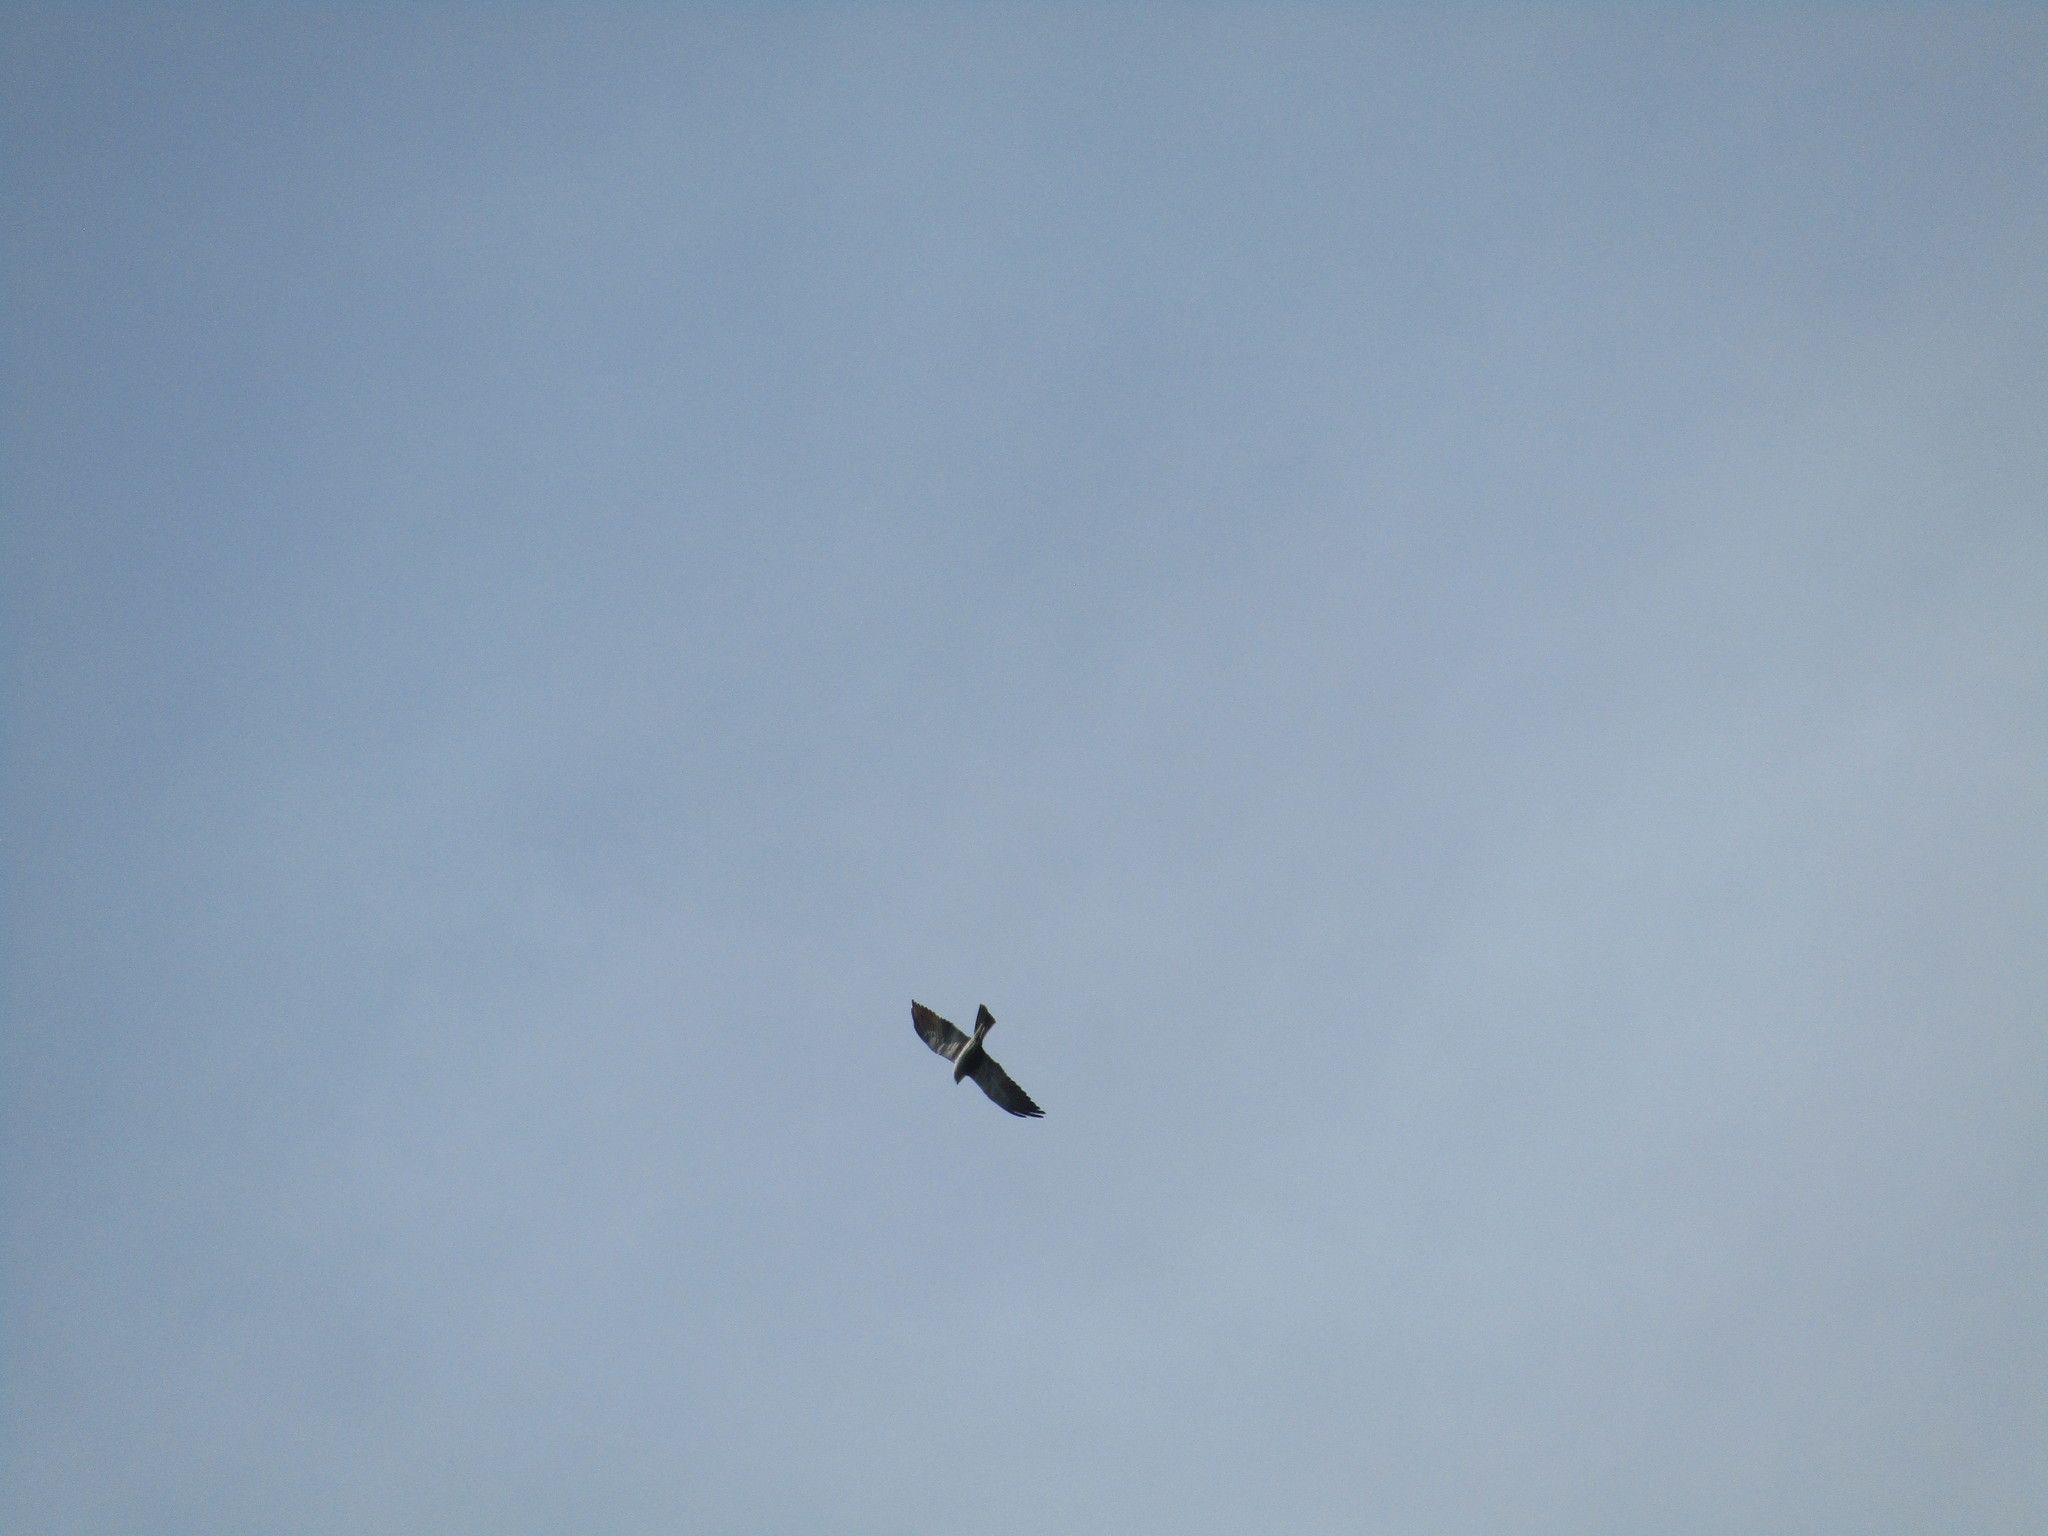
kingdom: Animalia
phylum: Chordata
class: Aves
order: Accipitriformes
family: Accipitridae
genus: Ictinia
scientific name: Ictinia mississippiensis
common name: Mississippi kite
